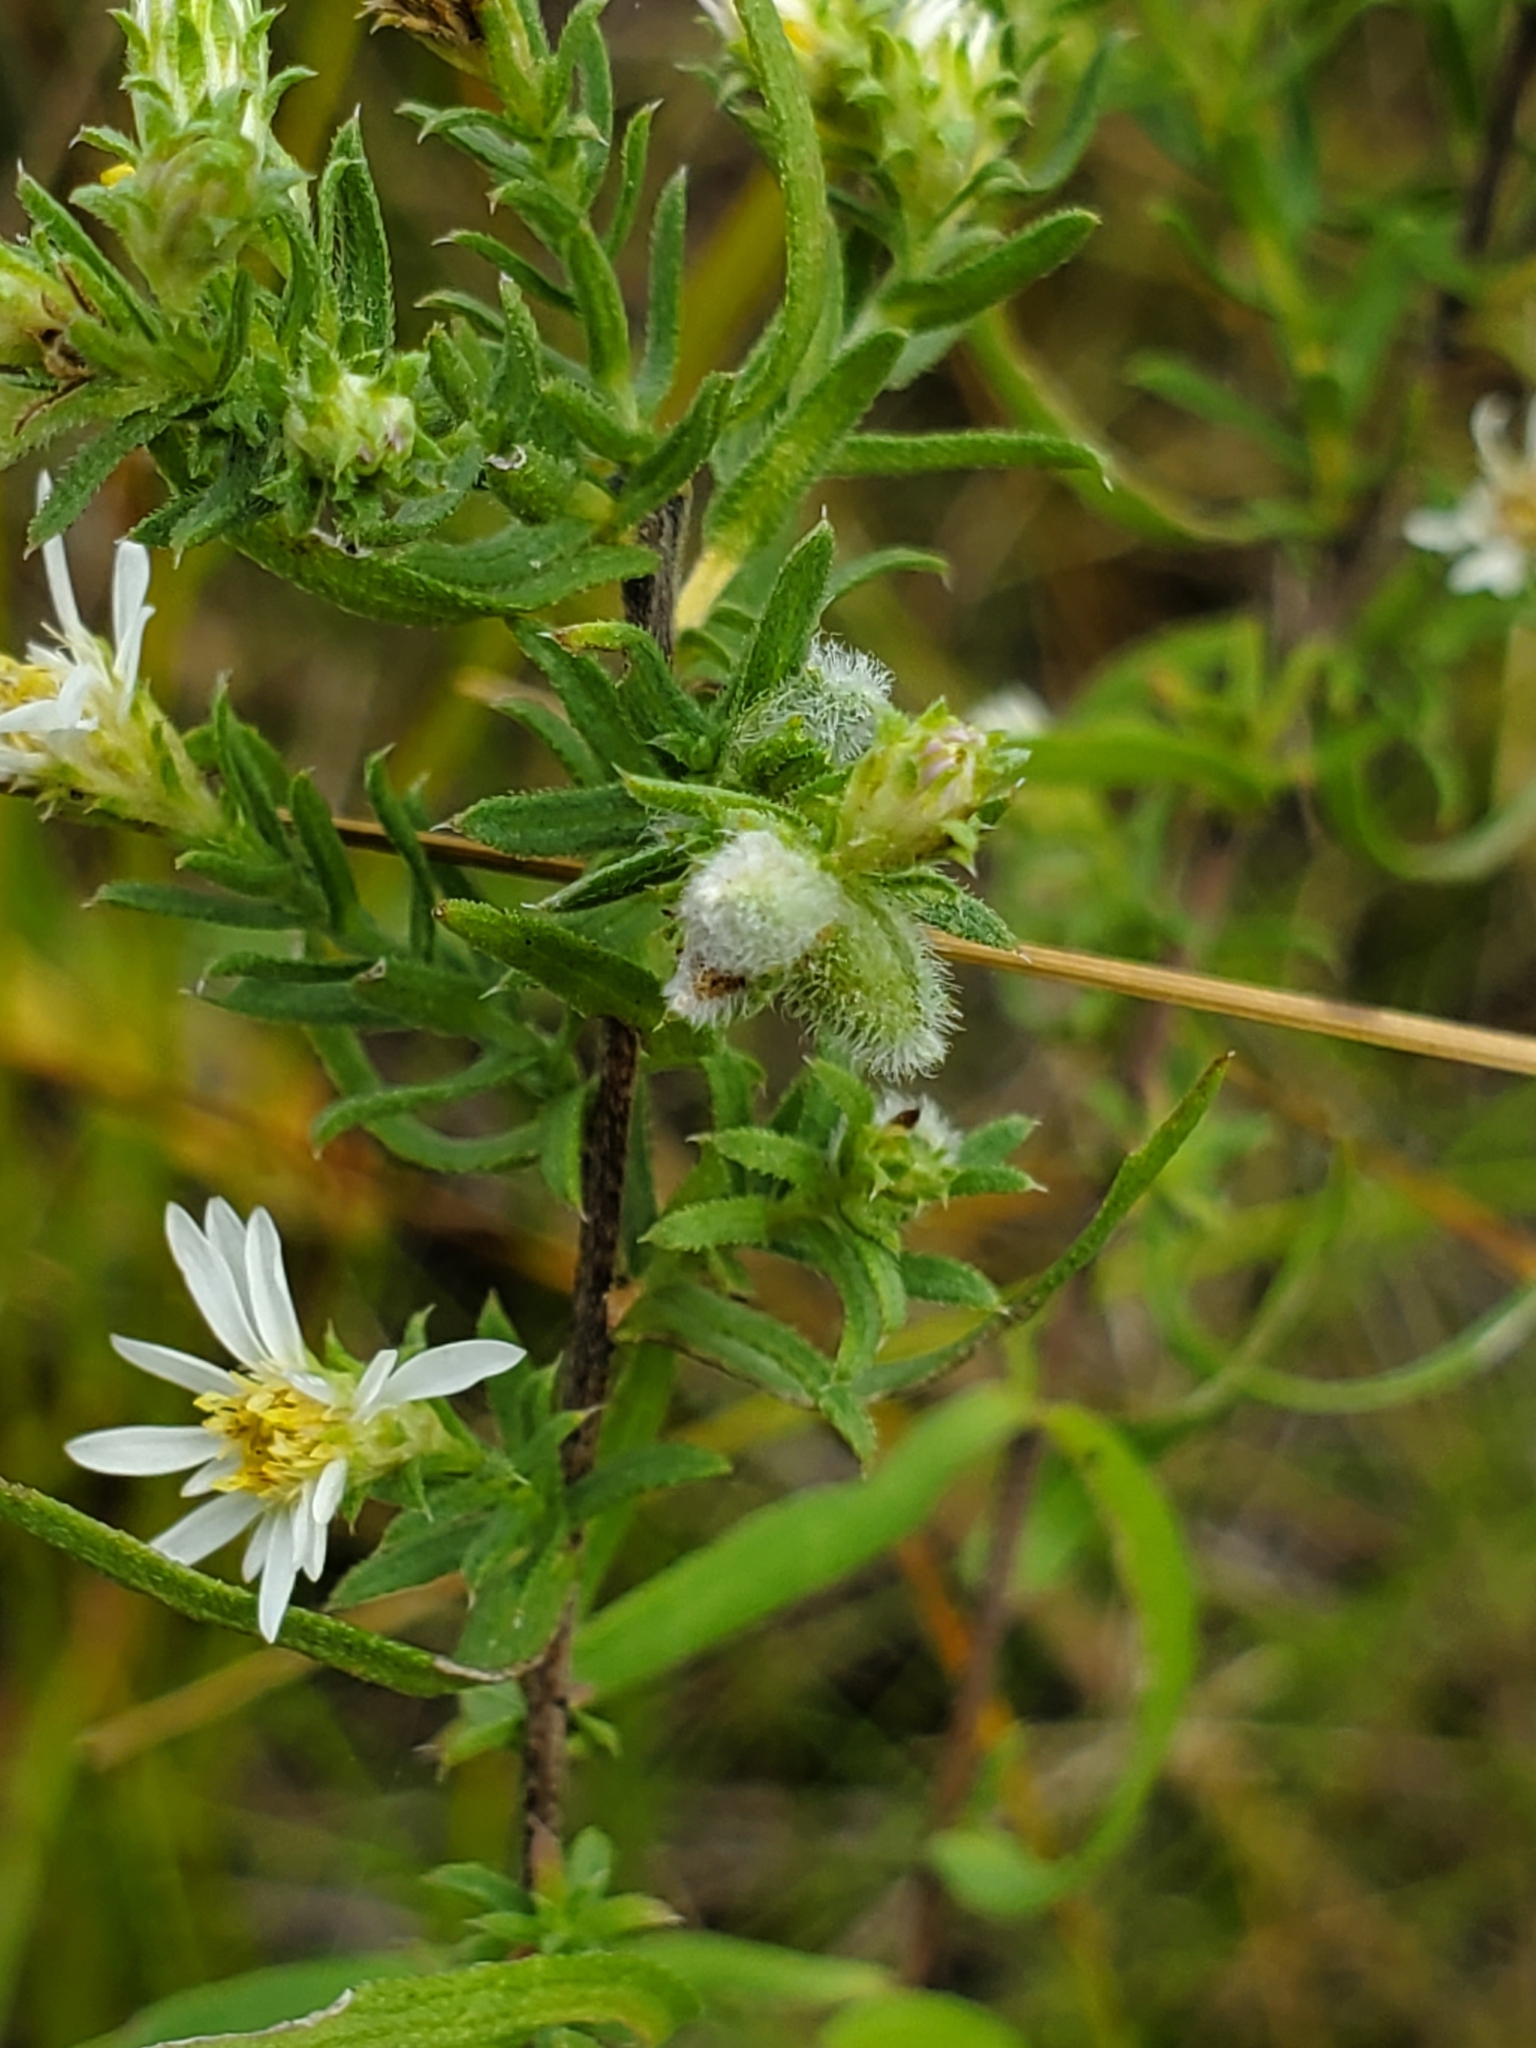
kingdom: Animalia
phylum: Arthropoda
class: Insecta
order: Diptera
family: Cecidomyiidae
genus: Rhopalomyia
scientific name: Rhopalomyia gemmaria
